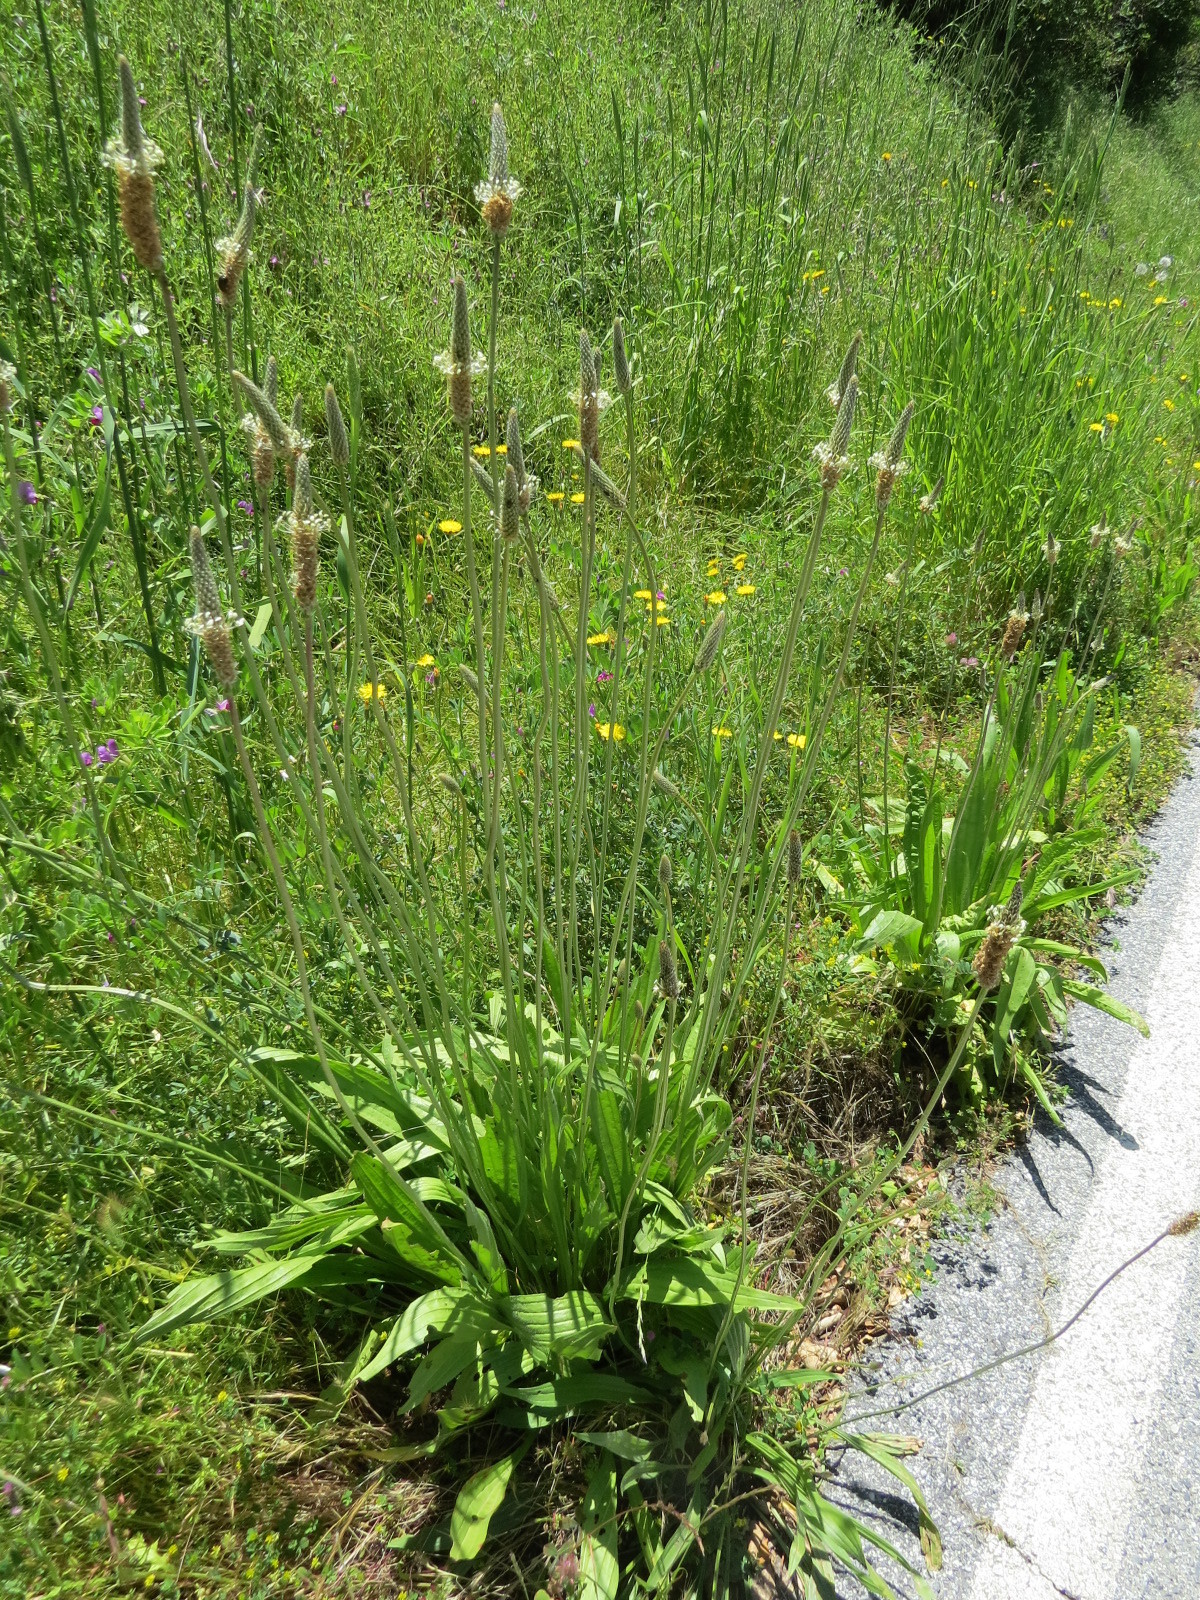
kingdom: Plantae
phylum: Tracheophyta
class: Magnoliopsida
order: Lamiales
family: Plantaginaceae
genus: Plantago
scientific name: Plantago lanceolata
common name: Ribwort plantain
